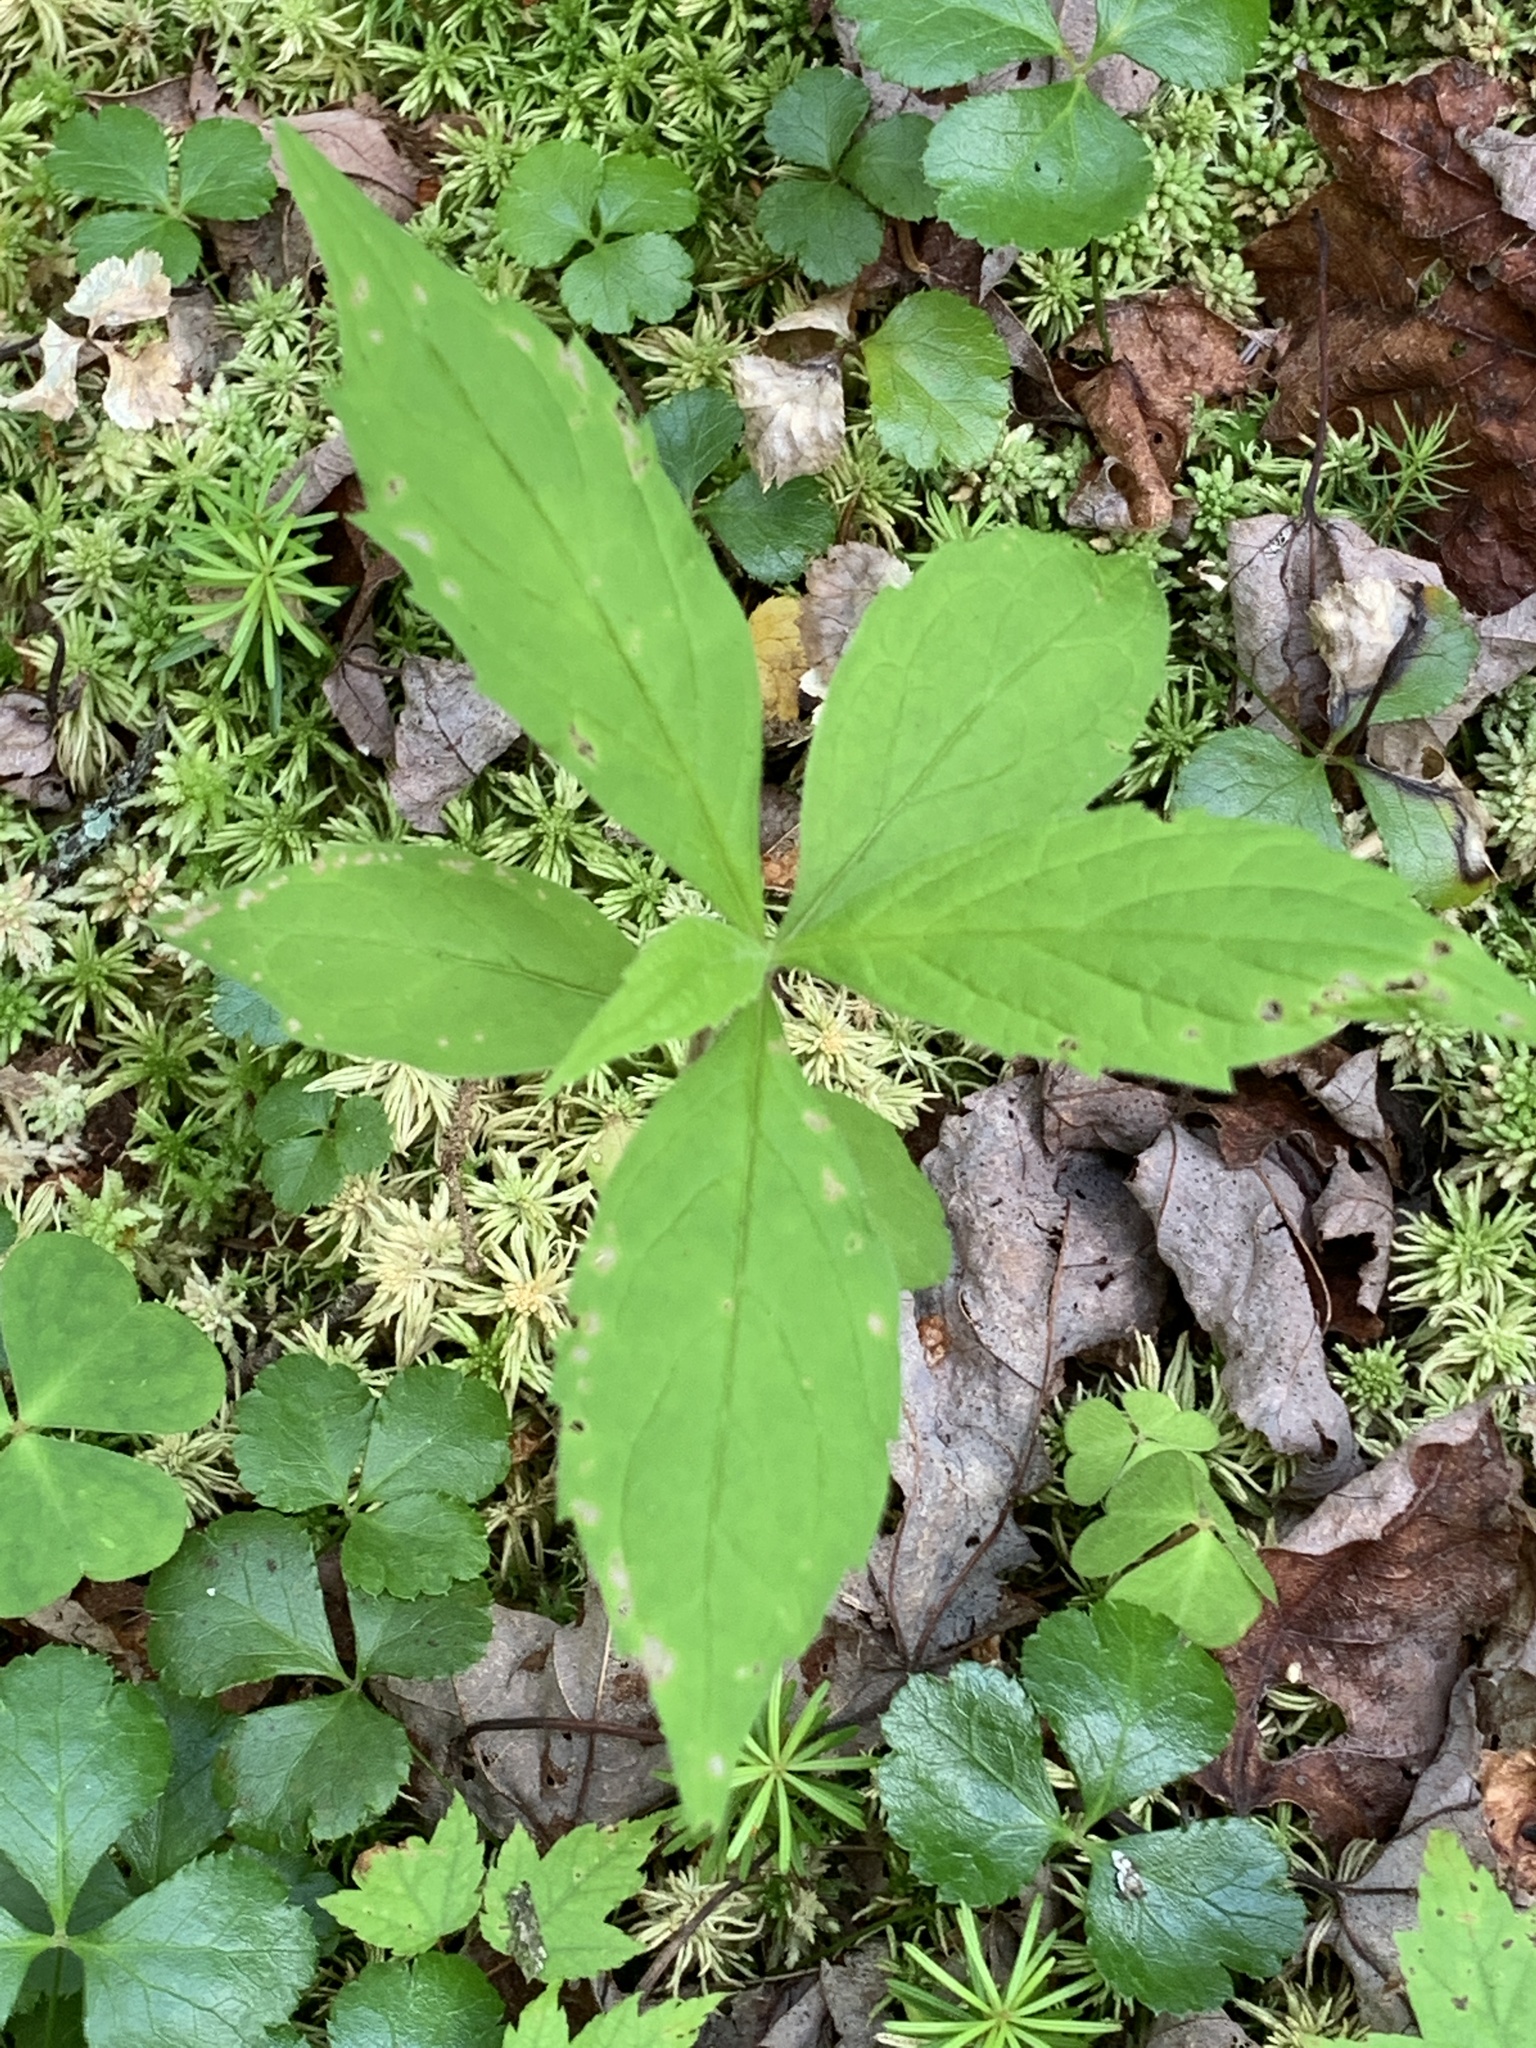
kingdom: Plantae
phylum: Tracheophyta
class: Magnoliopsida
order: Asterales
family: Asteraceae
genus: Oclemena
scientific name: Oclemena acuminata
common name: Mountain aster
